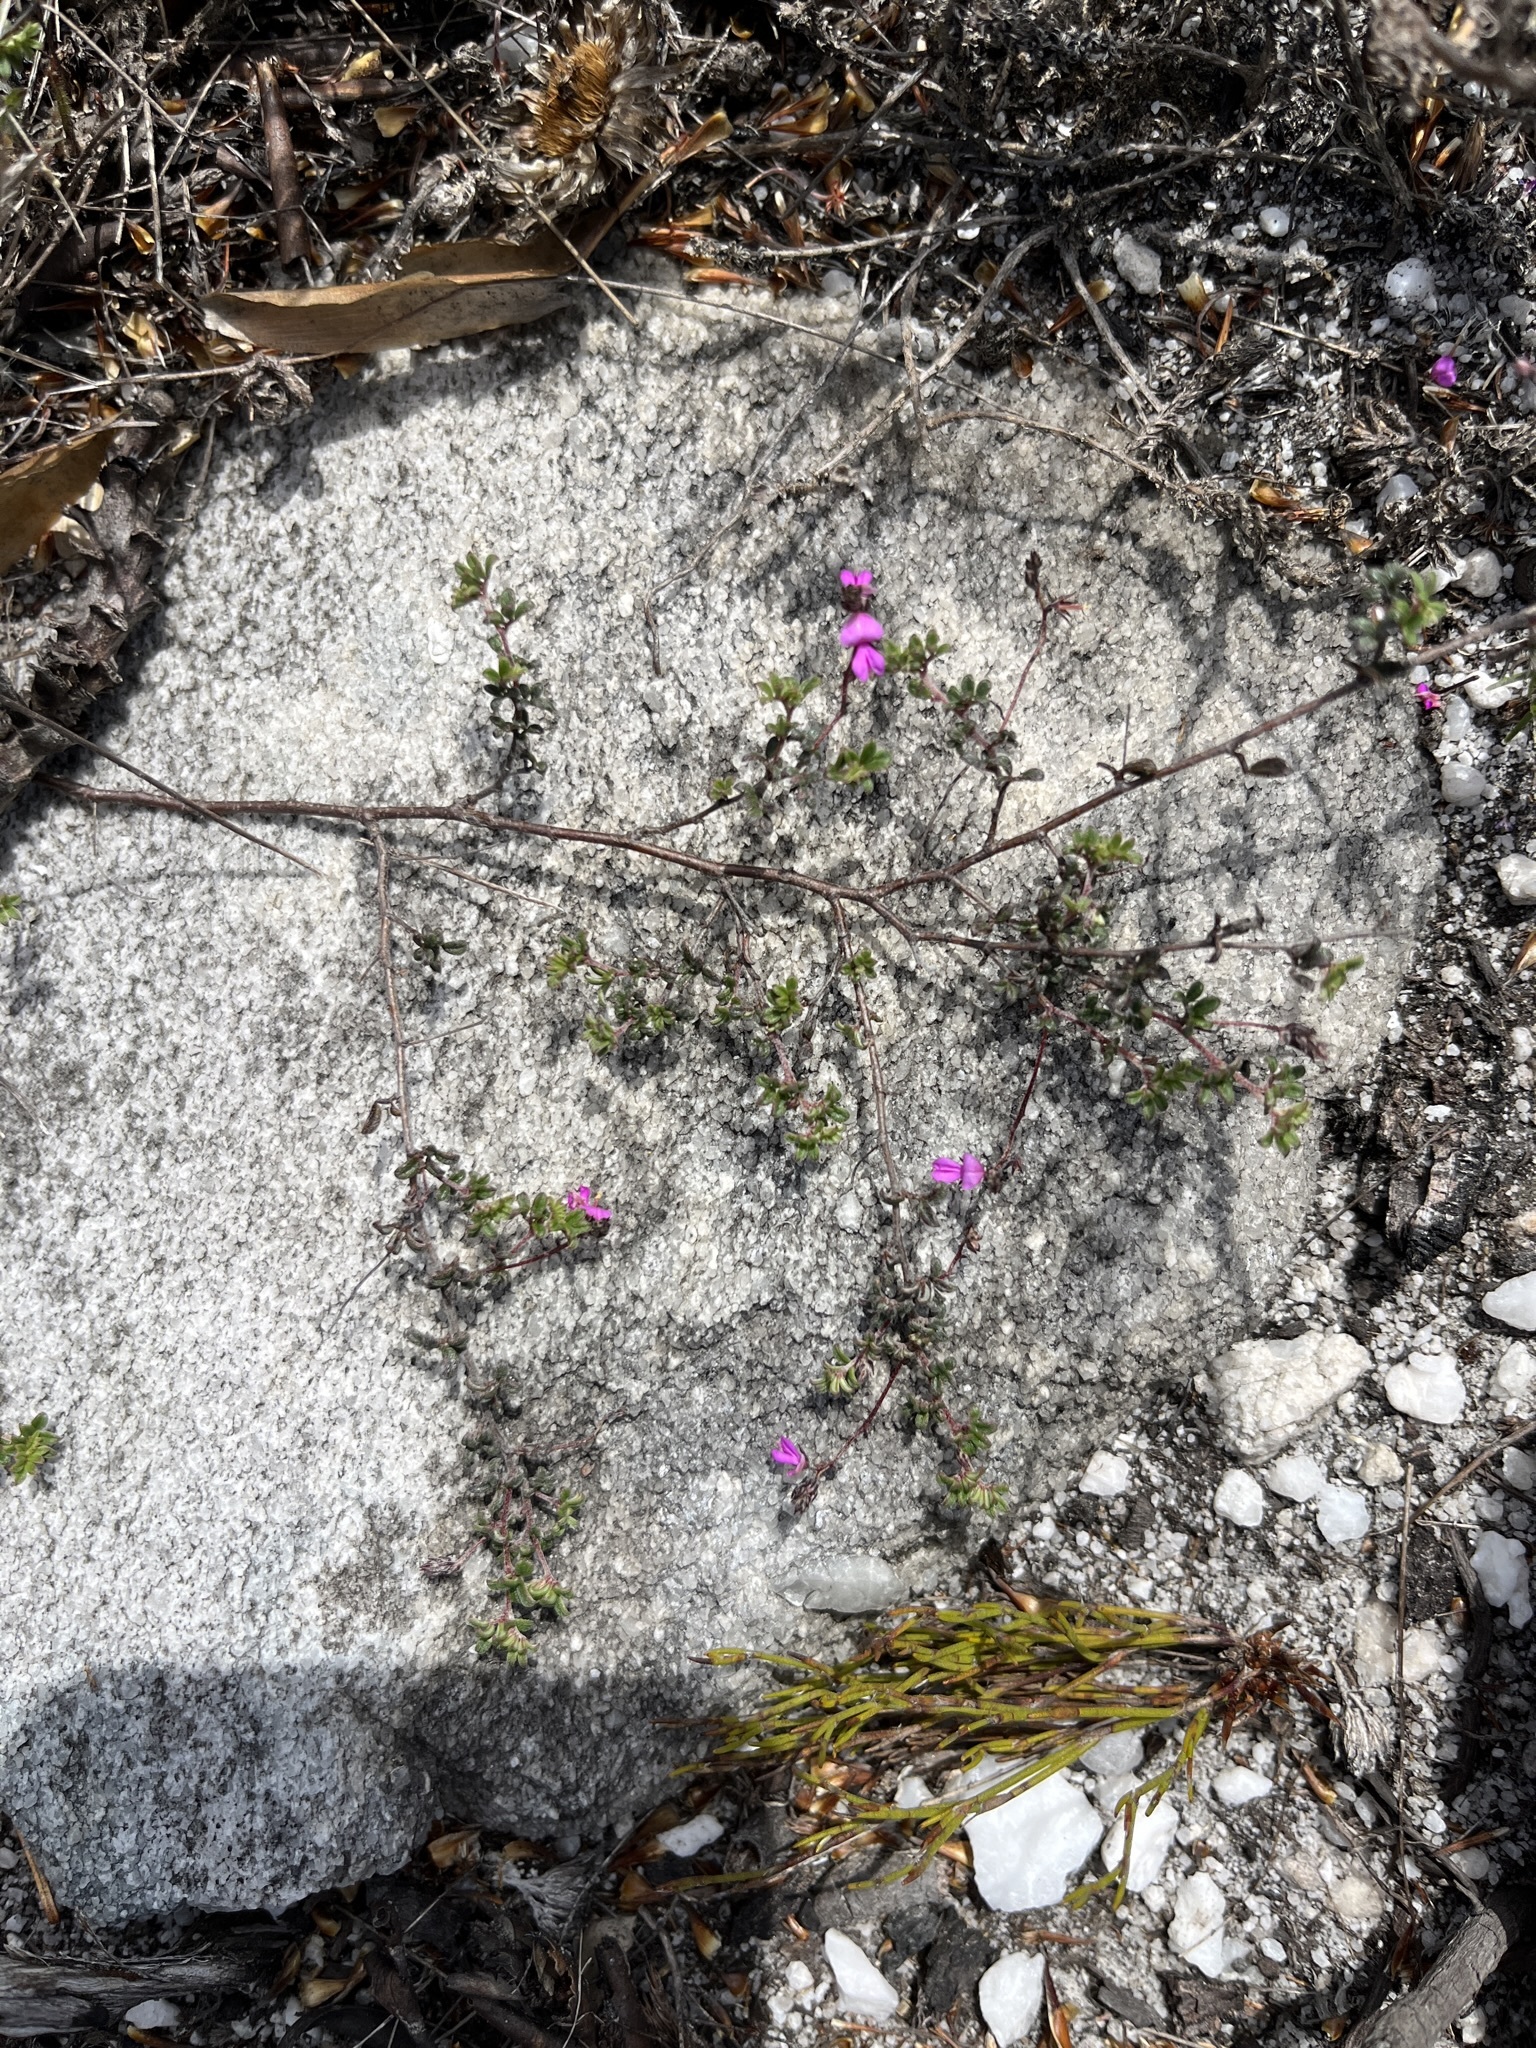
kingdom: Plantae
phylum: Tracheophyta
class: Magnoliopsida
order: Fabales
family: Fabaceae
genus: Indigofera
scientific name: Indigofera angustifolia
